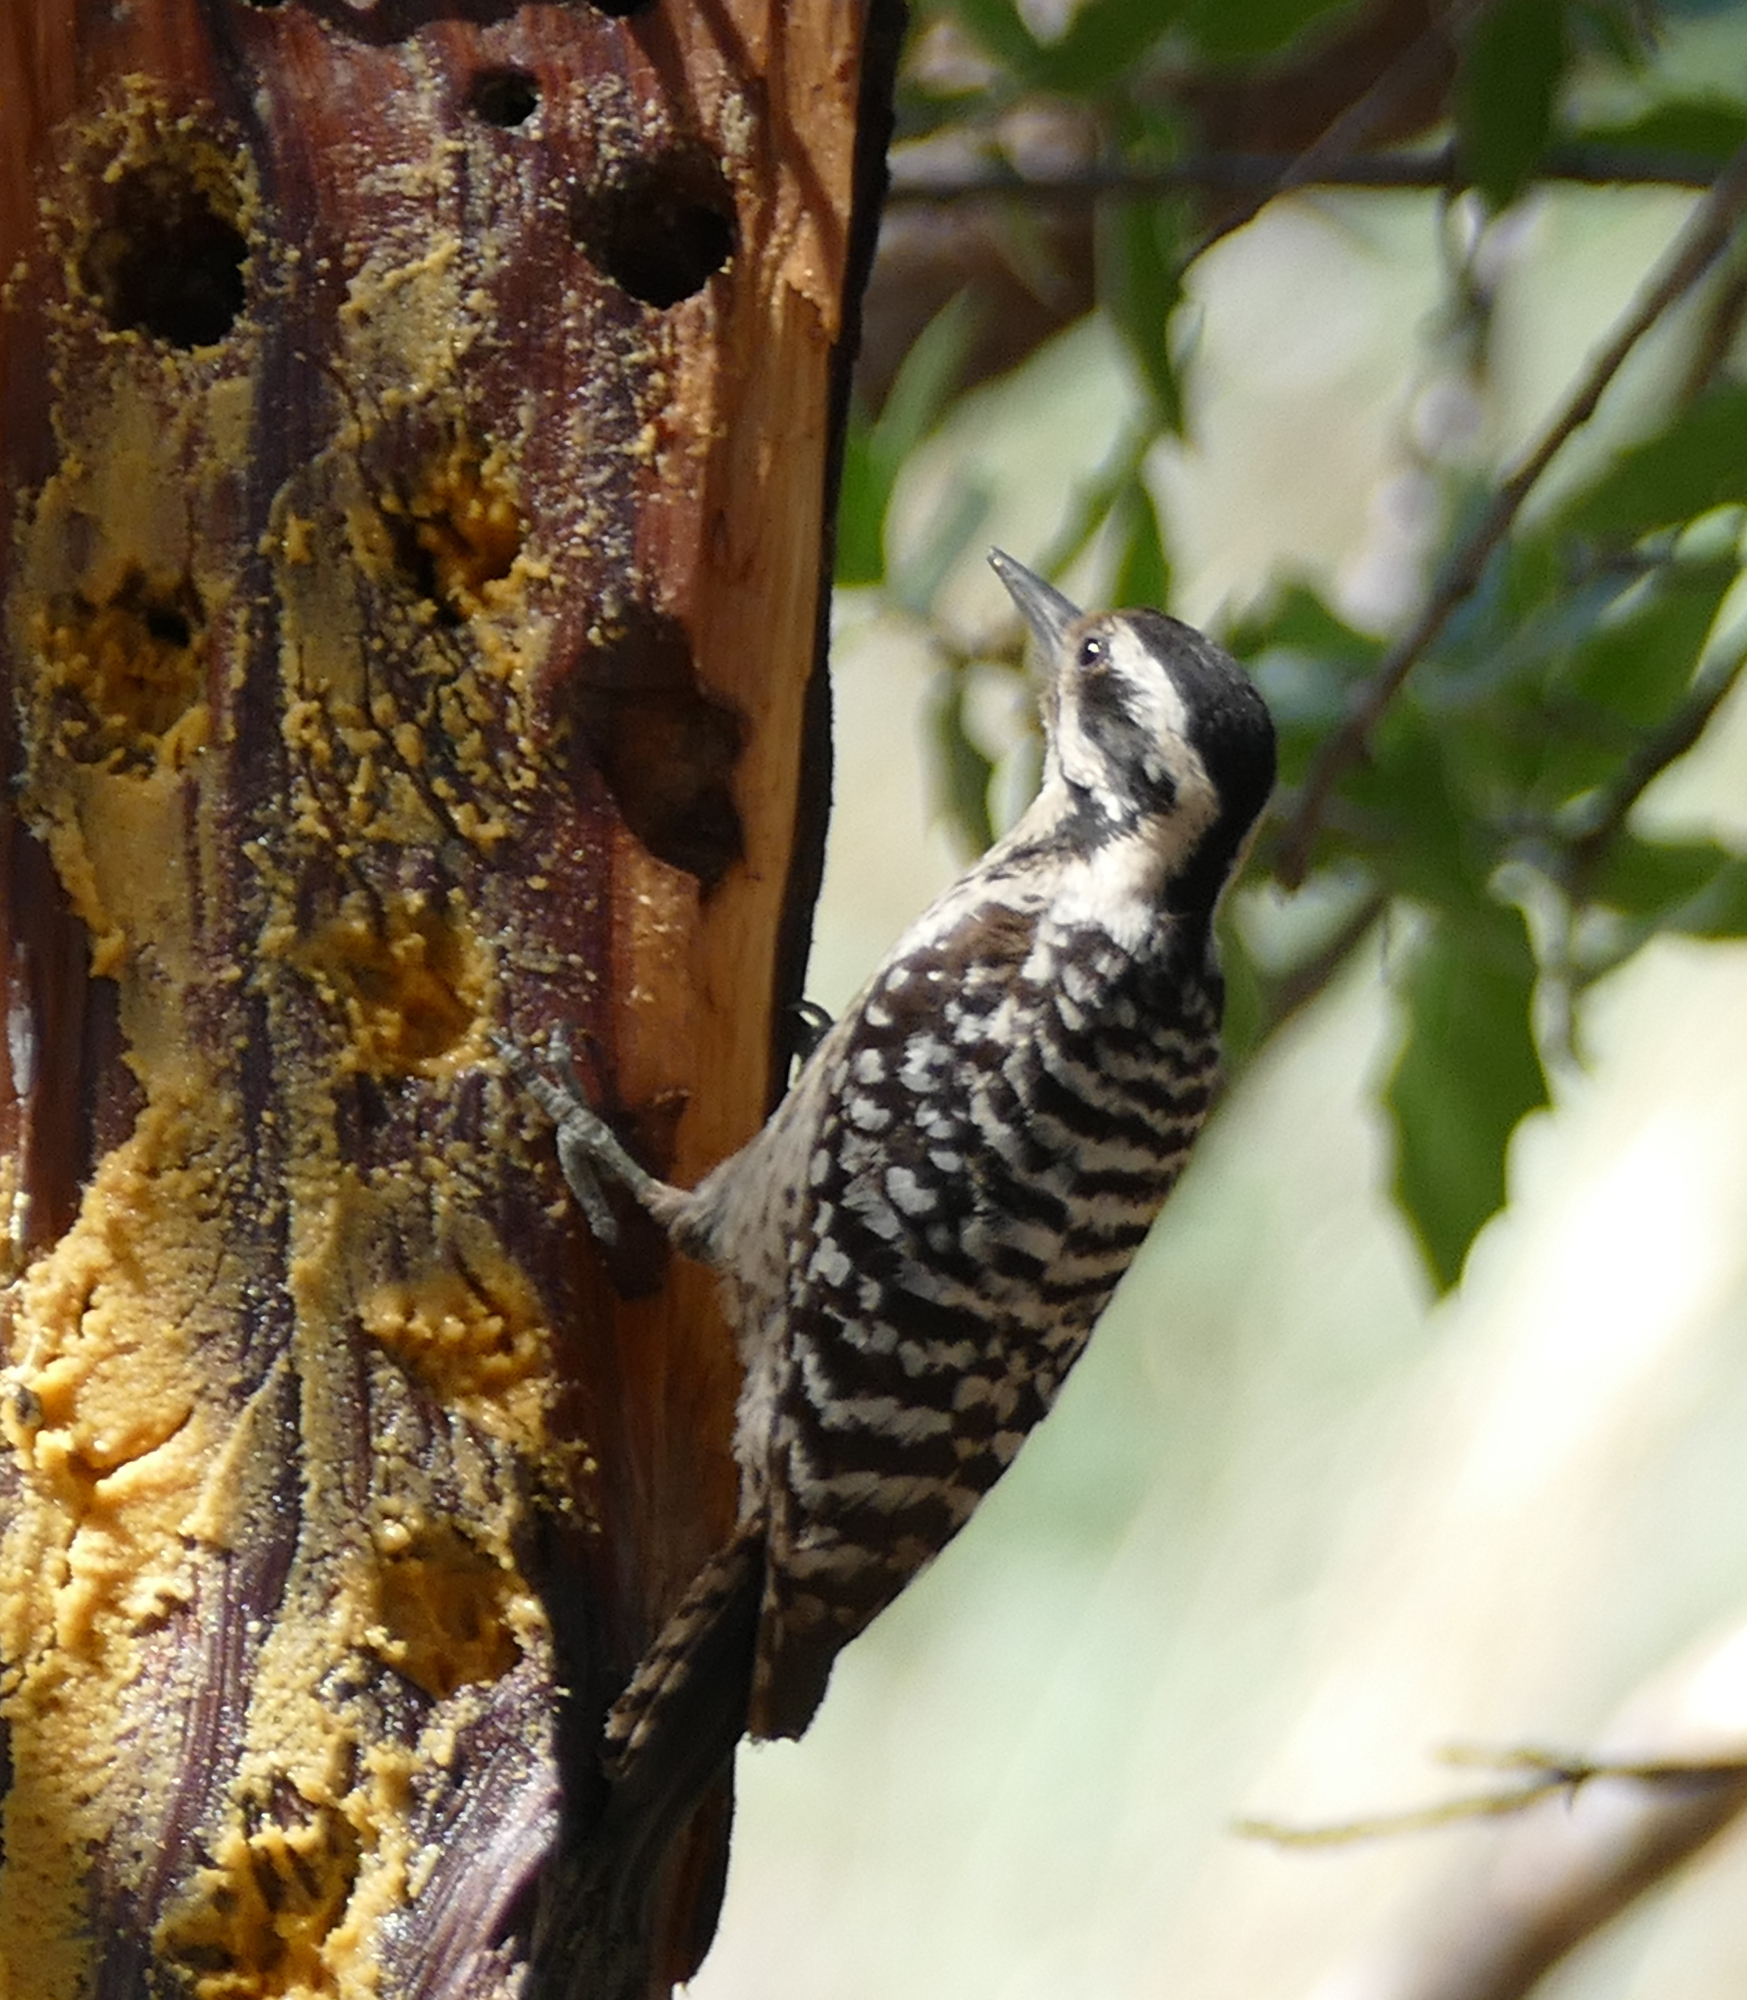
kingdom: Animalia
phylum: Chordata
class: Aves
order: Piciformes
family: Picidae
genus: Dryobates
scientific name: Dryobates scalaris
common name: Ladder-backed woodpecker
